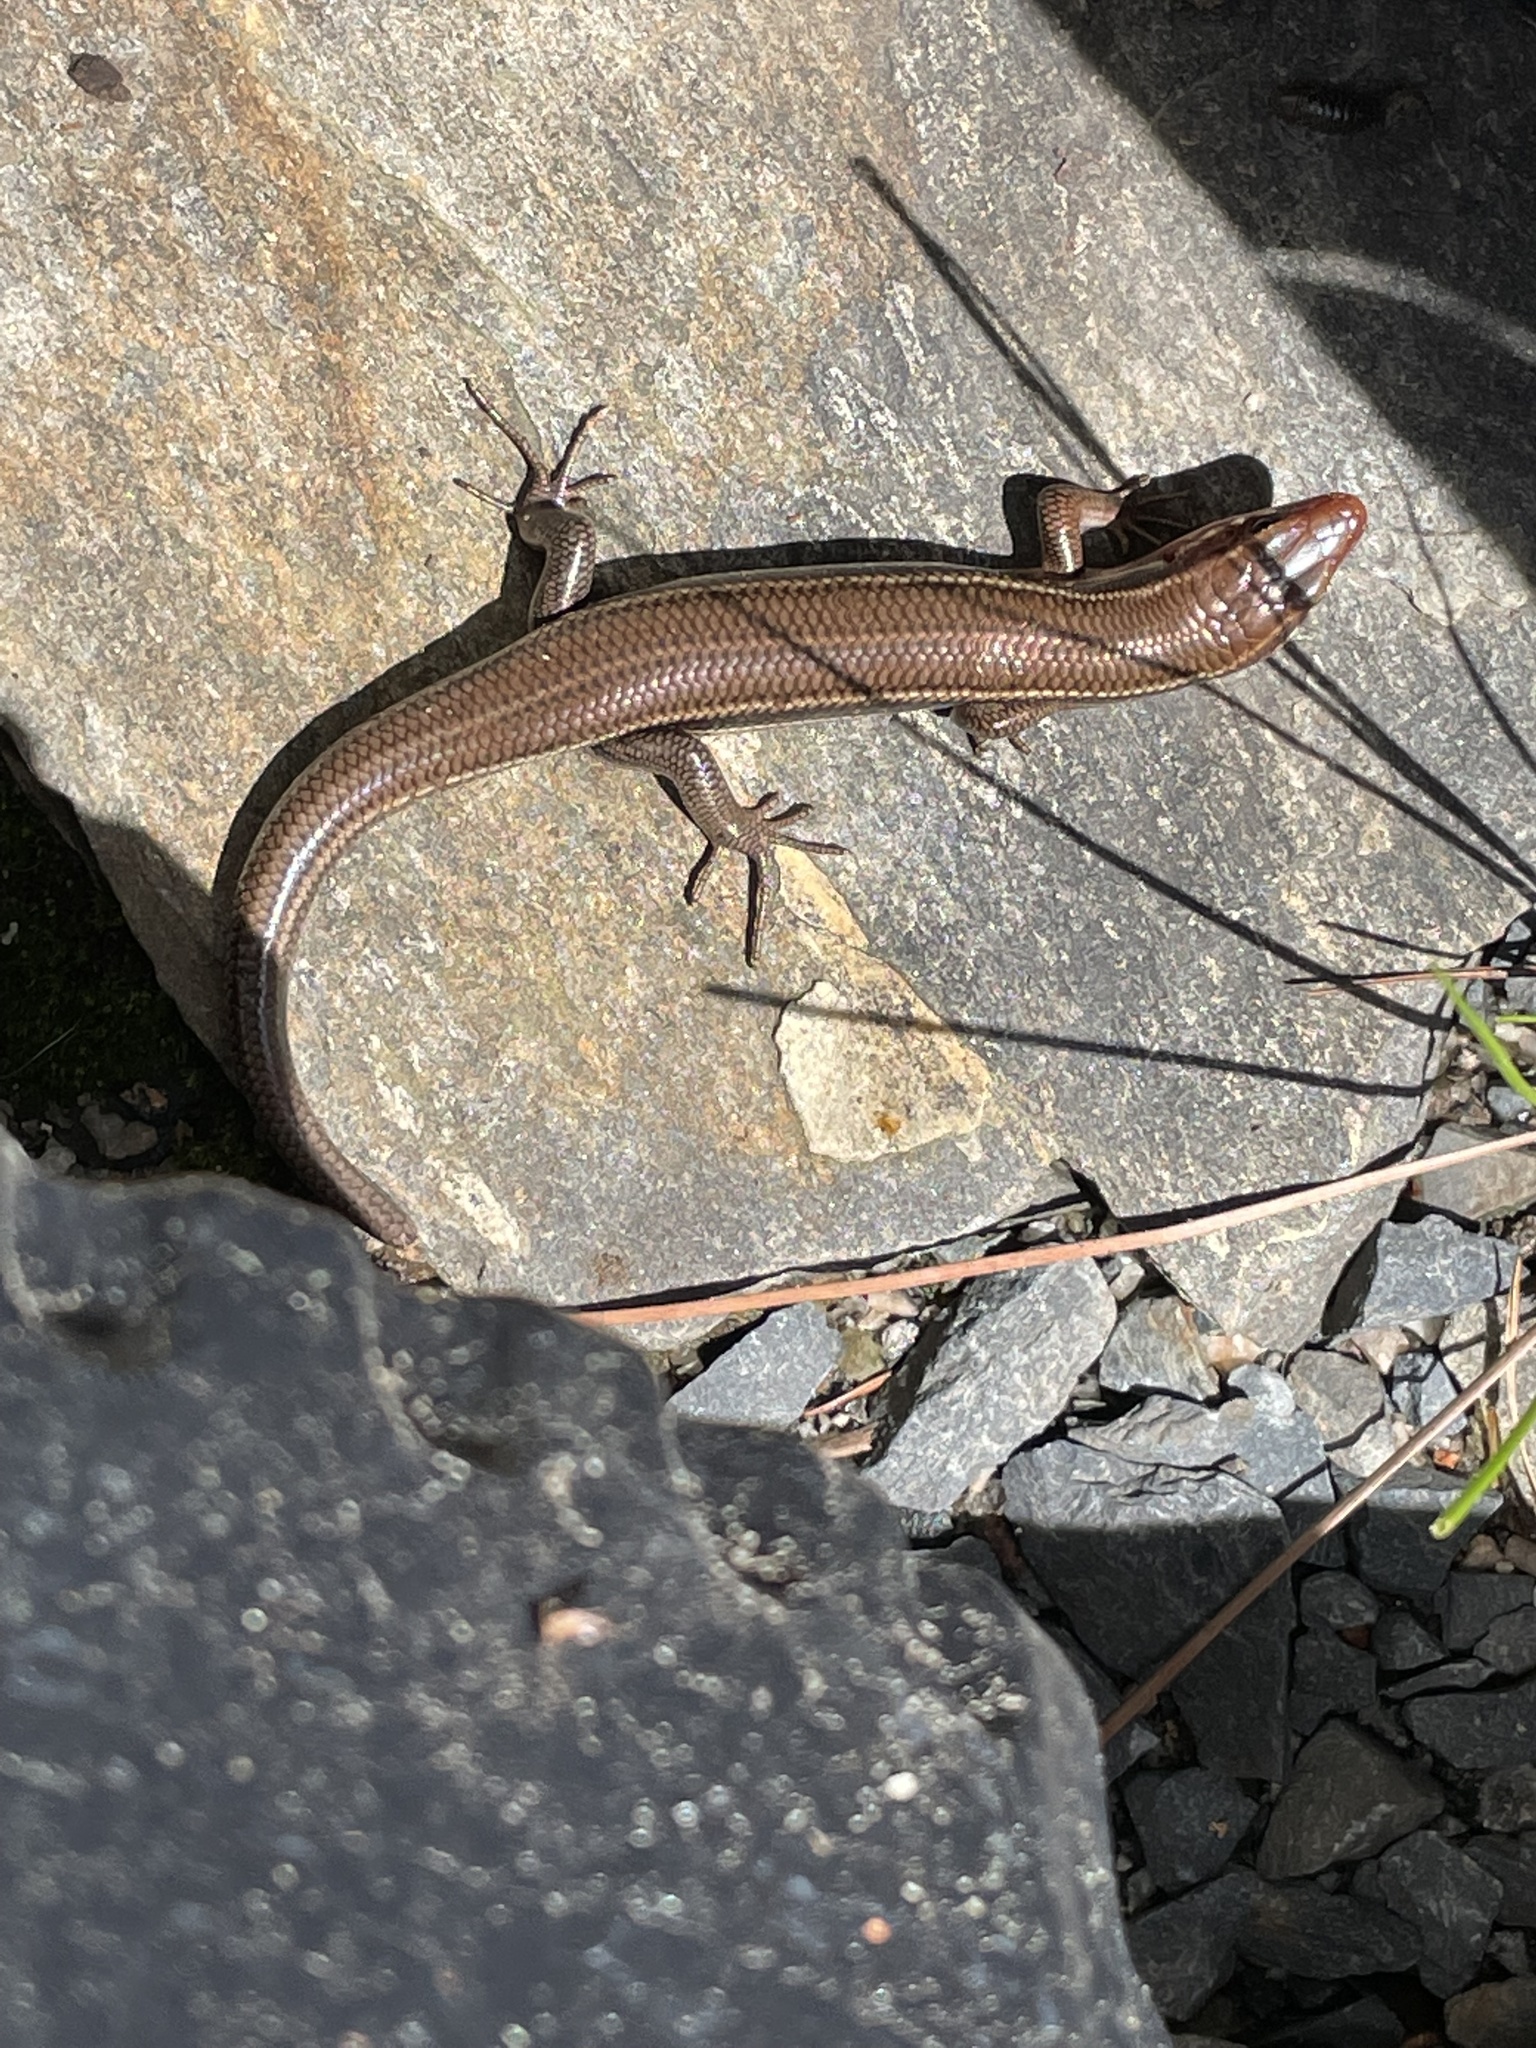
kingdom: Animalia
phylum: Chordata
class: Squamata
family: Scincidae
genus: Plestiodon
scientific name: Plestiodon inexpectatus
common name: Southeastern five-lined skink
